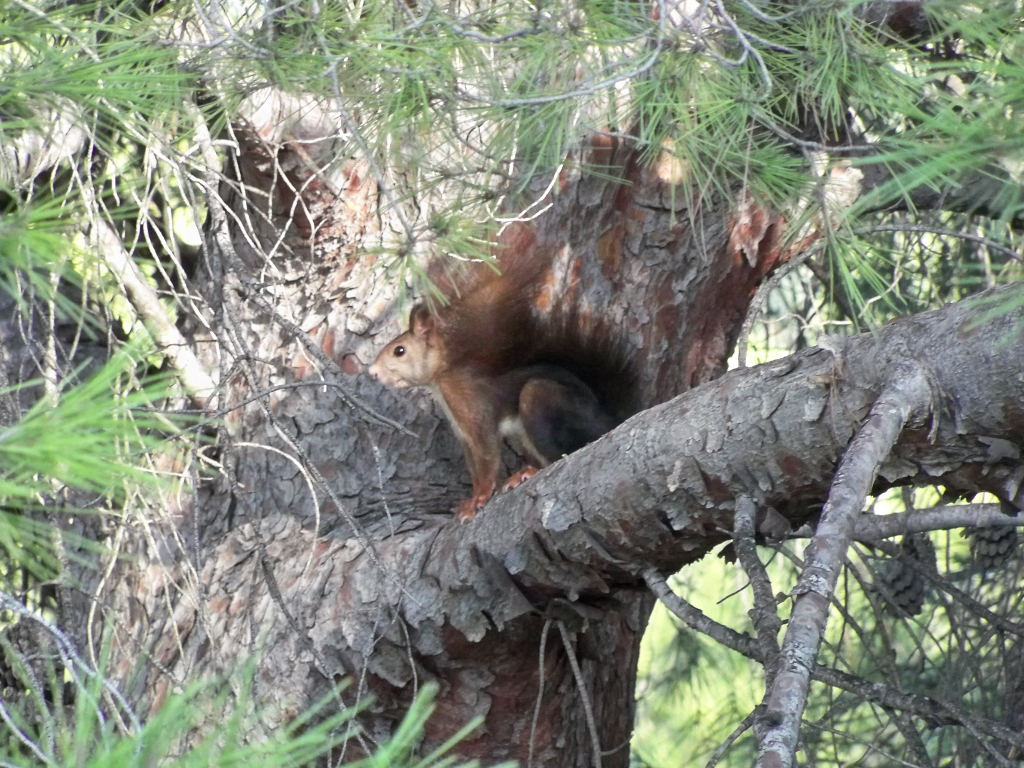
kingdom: Animalia
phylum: Chordata
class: Mammalia
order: Rodentia
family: Sciuridae
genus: Sciurus
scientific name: Sciurus vulgaris
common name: Eurasian red squirrel
